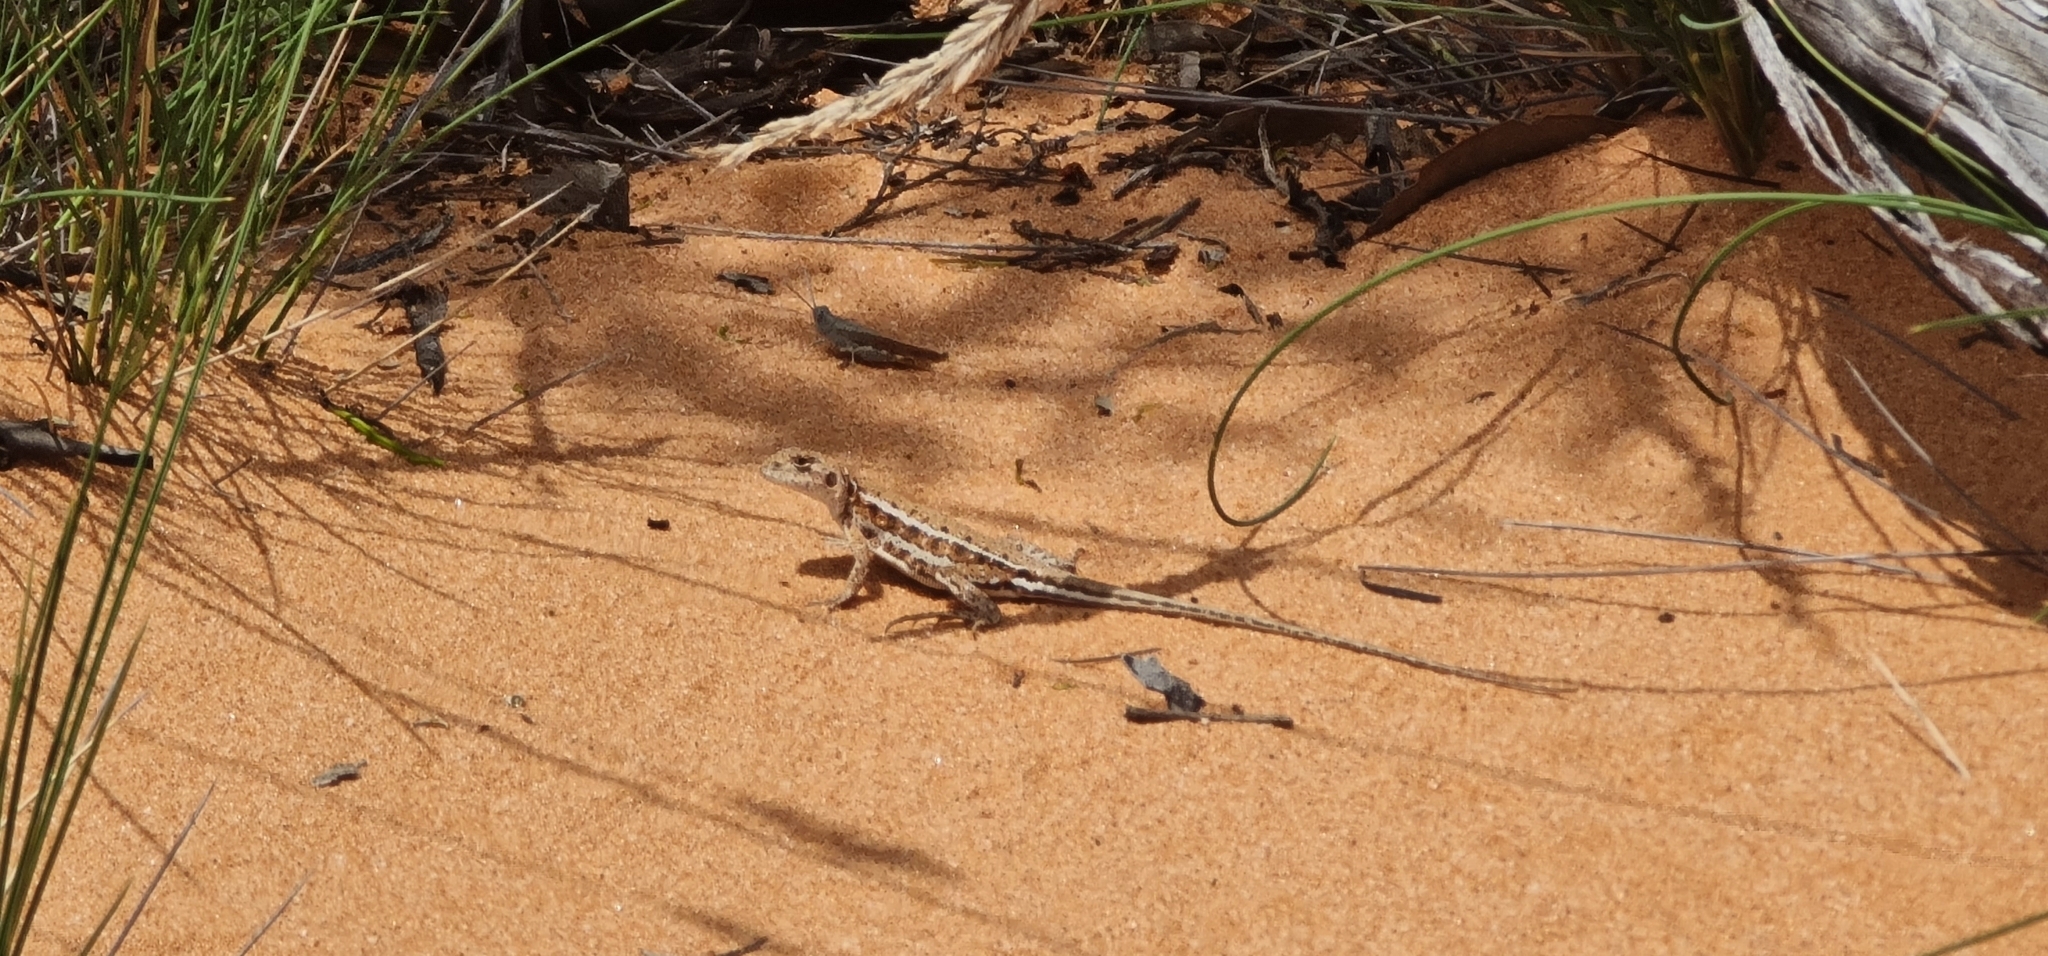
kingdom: Animalia
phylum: Chordata
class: Squamata
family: Agamidae
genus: Ctenophorus
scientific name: Ctenophorus spinodomus
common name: Eastern mallee dragon
